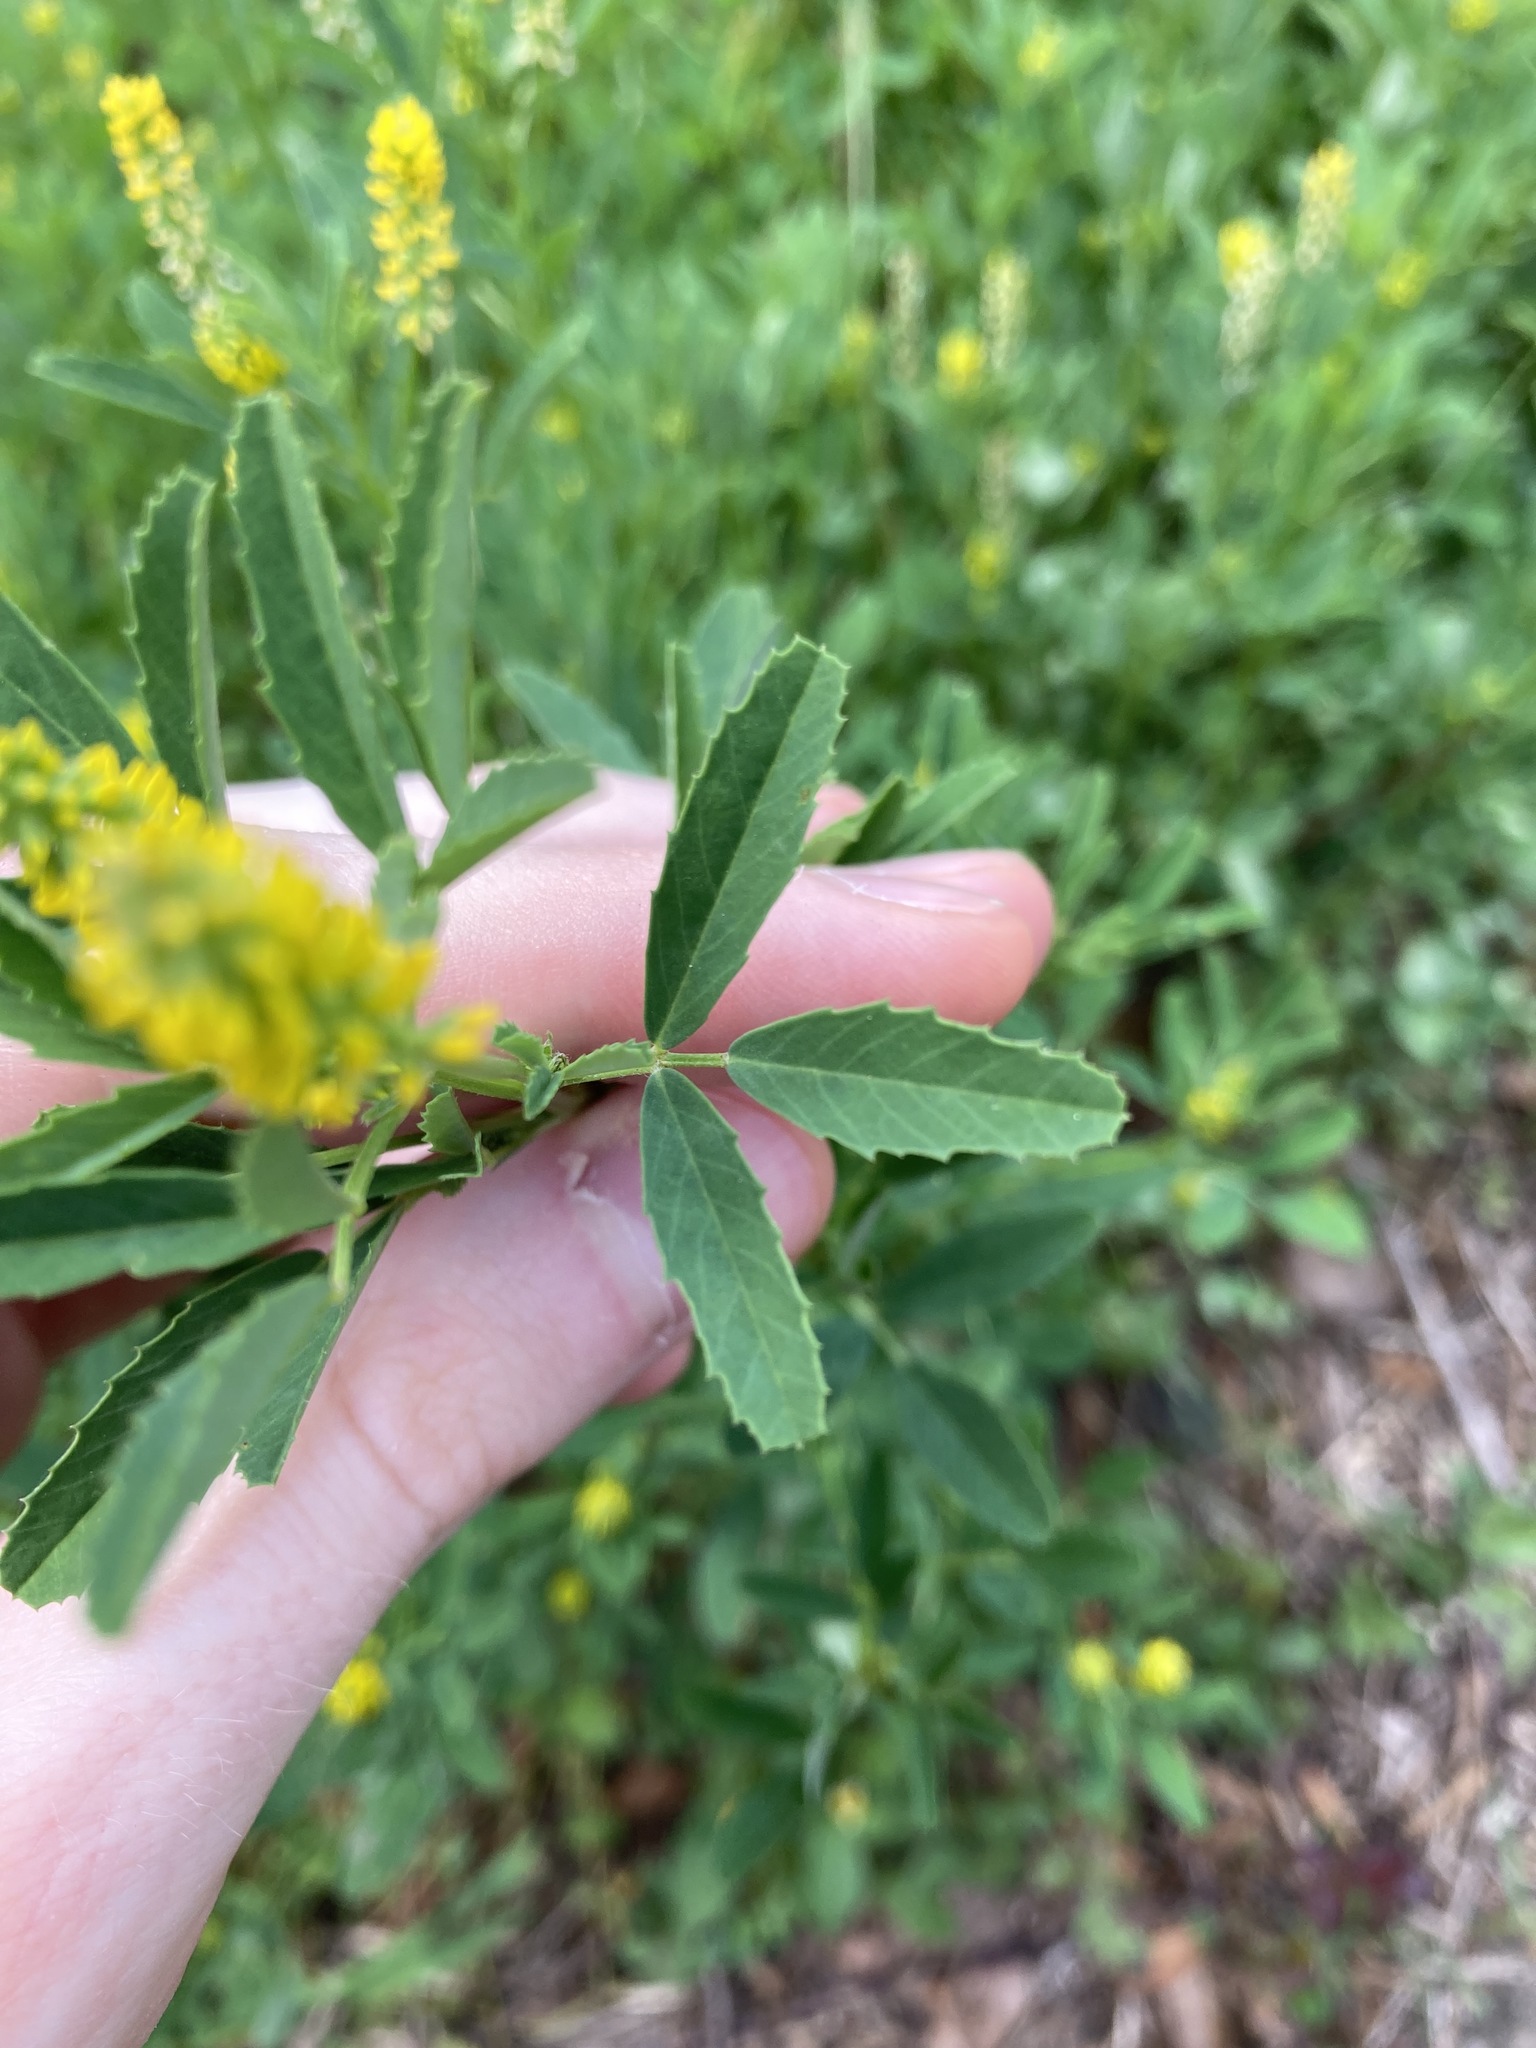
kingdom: Plantae
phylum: Tracheophyta
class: Magnoliopsida
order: Fabales
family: Fabaceae
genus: Melilotus
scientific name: Melilotus indicus
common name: Small melilot
